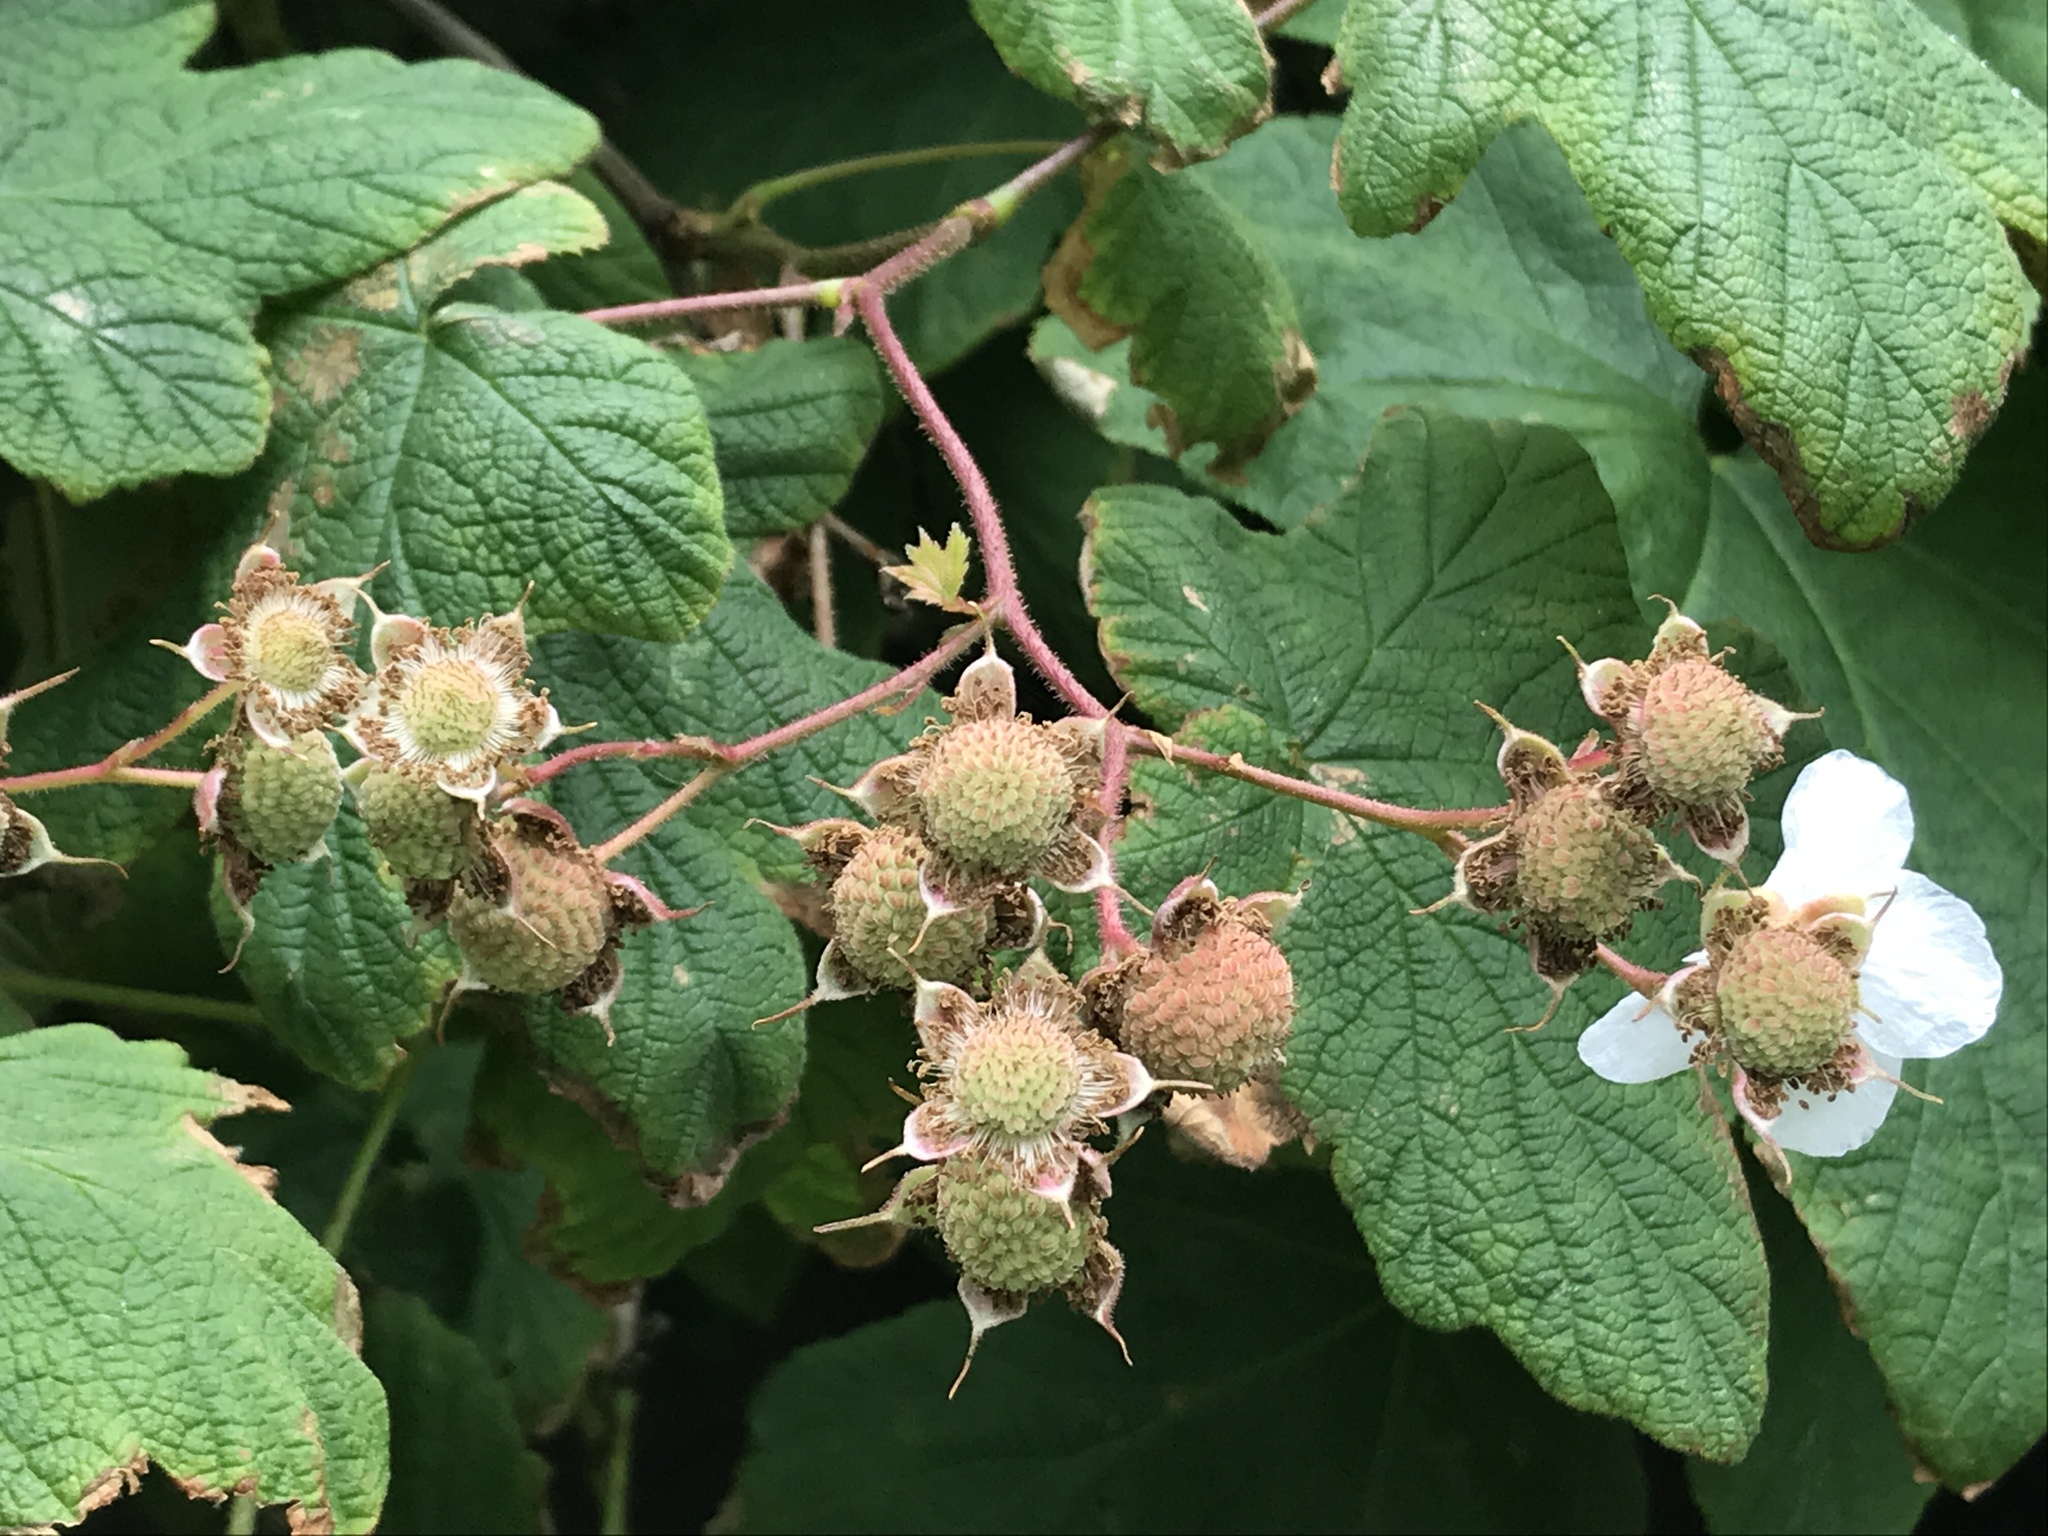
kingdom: Plantae
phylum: Tracheophyta
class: Magnoliopsida
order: Rosales
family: Rosaceae
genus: Rubus
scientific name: Rubus parviflorus
